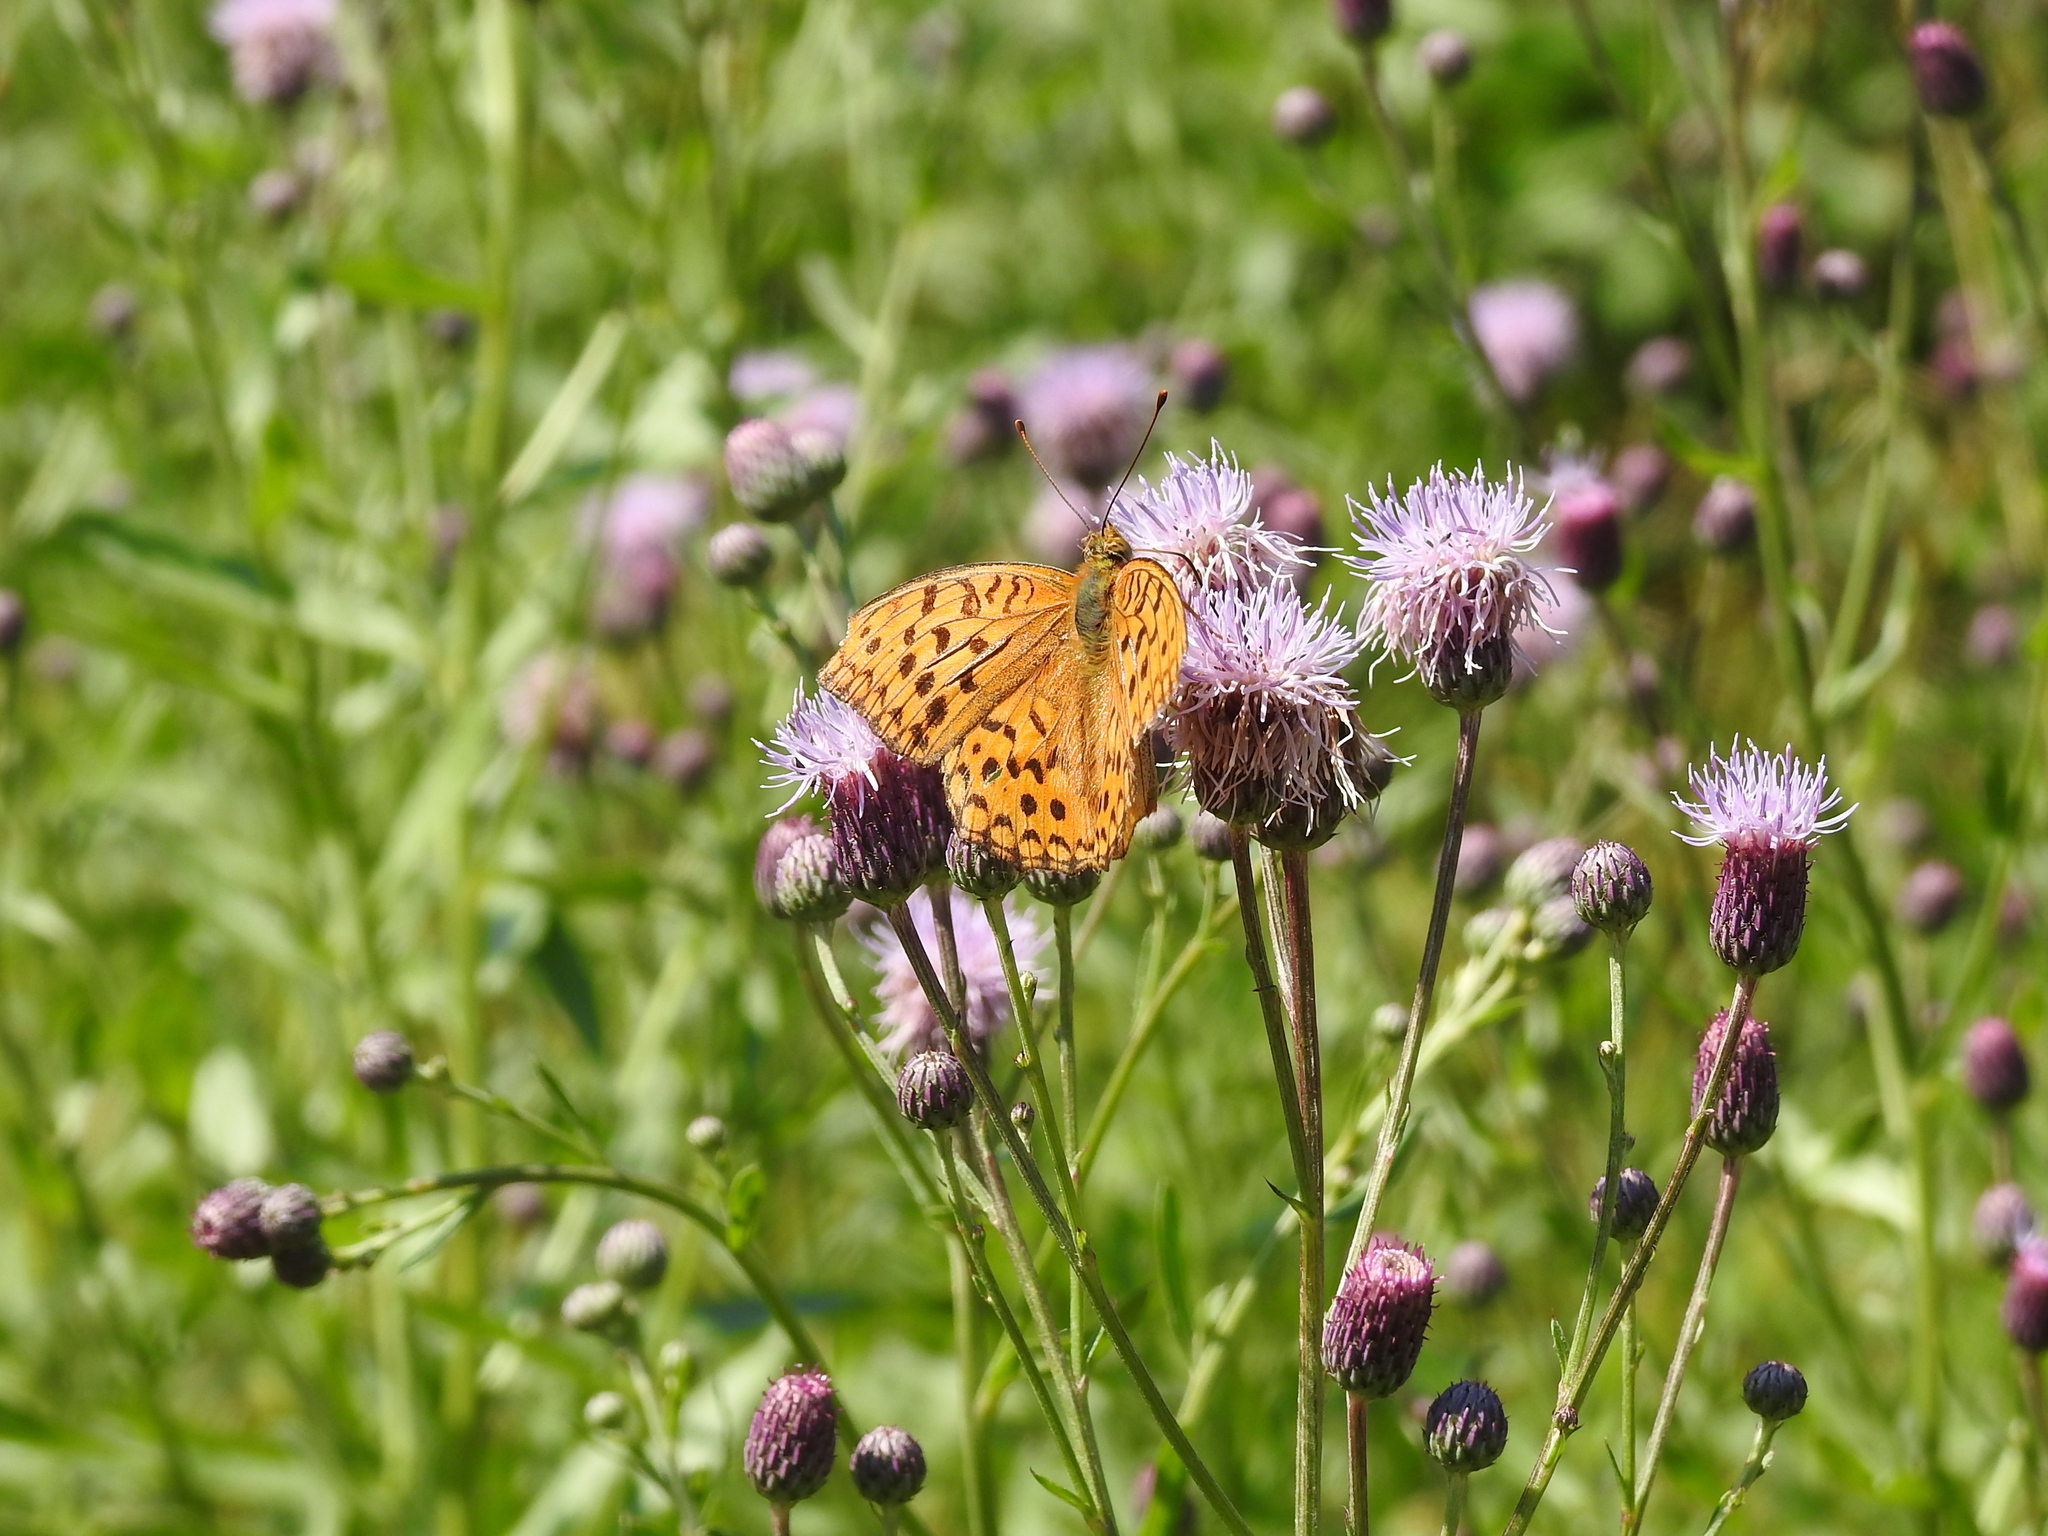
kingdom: Animalia
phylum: Arthropoda
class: Insecta
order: Lepidoptera
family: Nymphalidae
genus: Fabriciana
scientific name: Fabriciana adippe
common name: High brown fritillary
